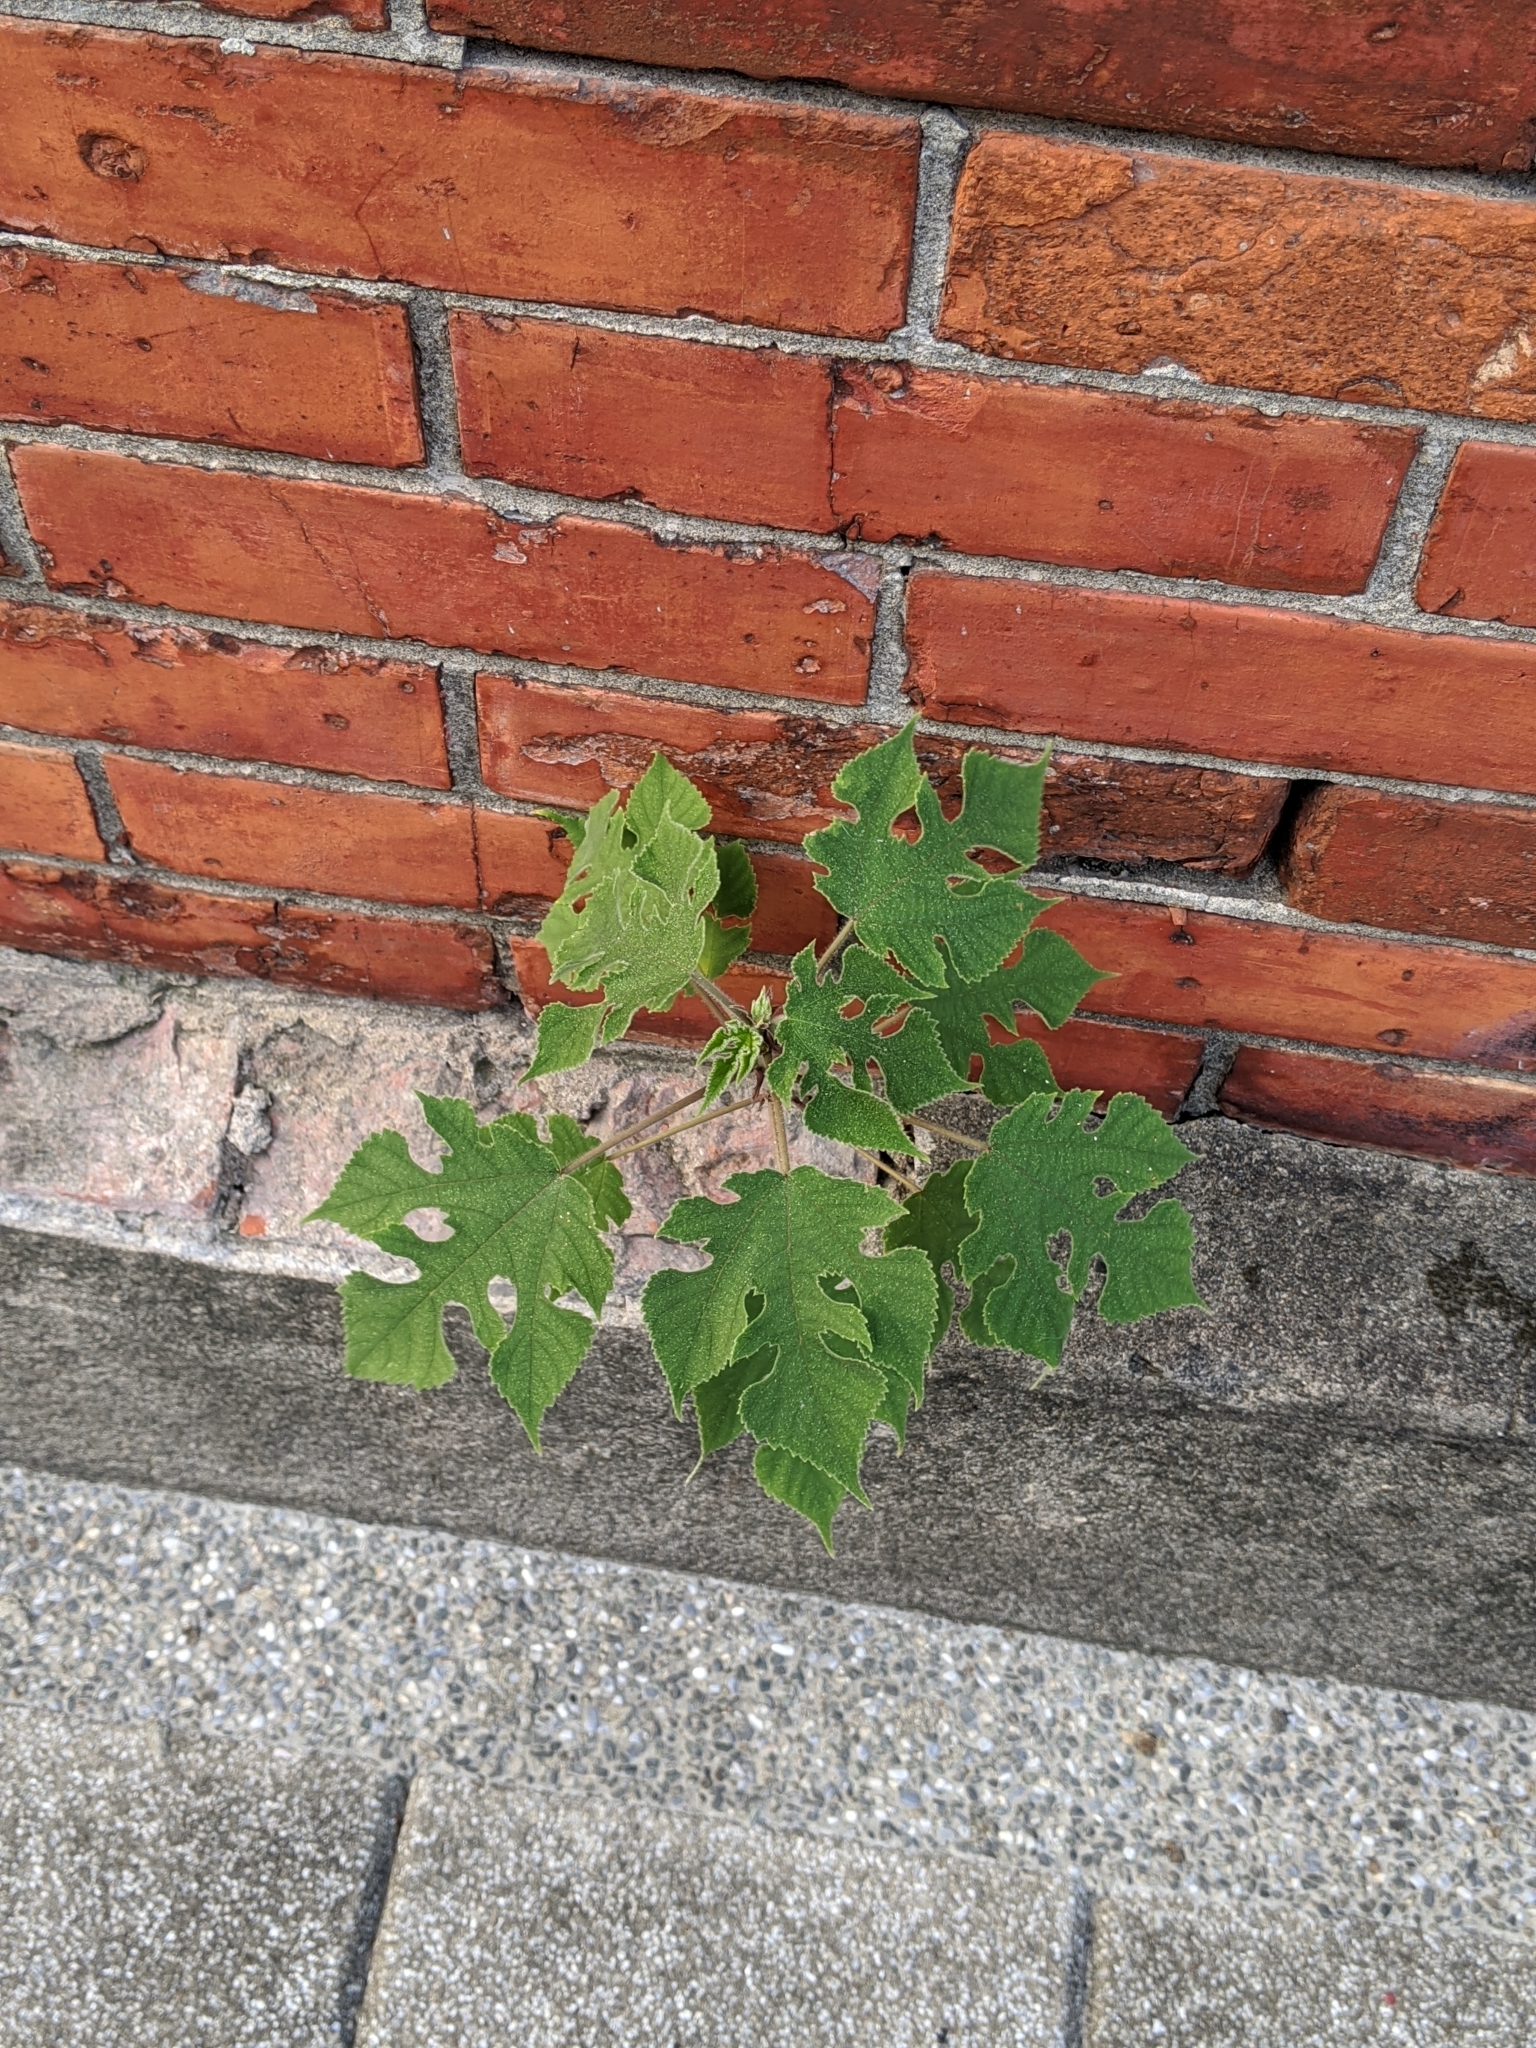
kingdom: Plantae
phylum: Tracheophyta
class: Magnoliopsida
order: Rosales
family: Moraceae
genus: Broussonetia
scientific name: Broussonetia papyrifera
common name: Paper mulberry
